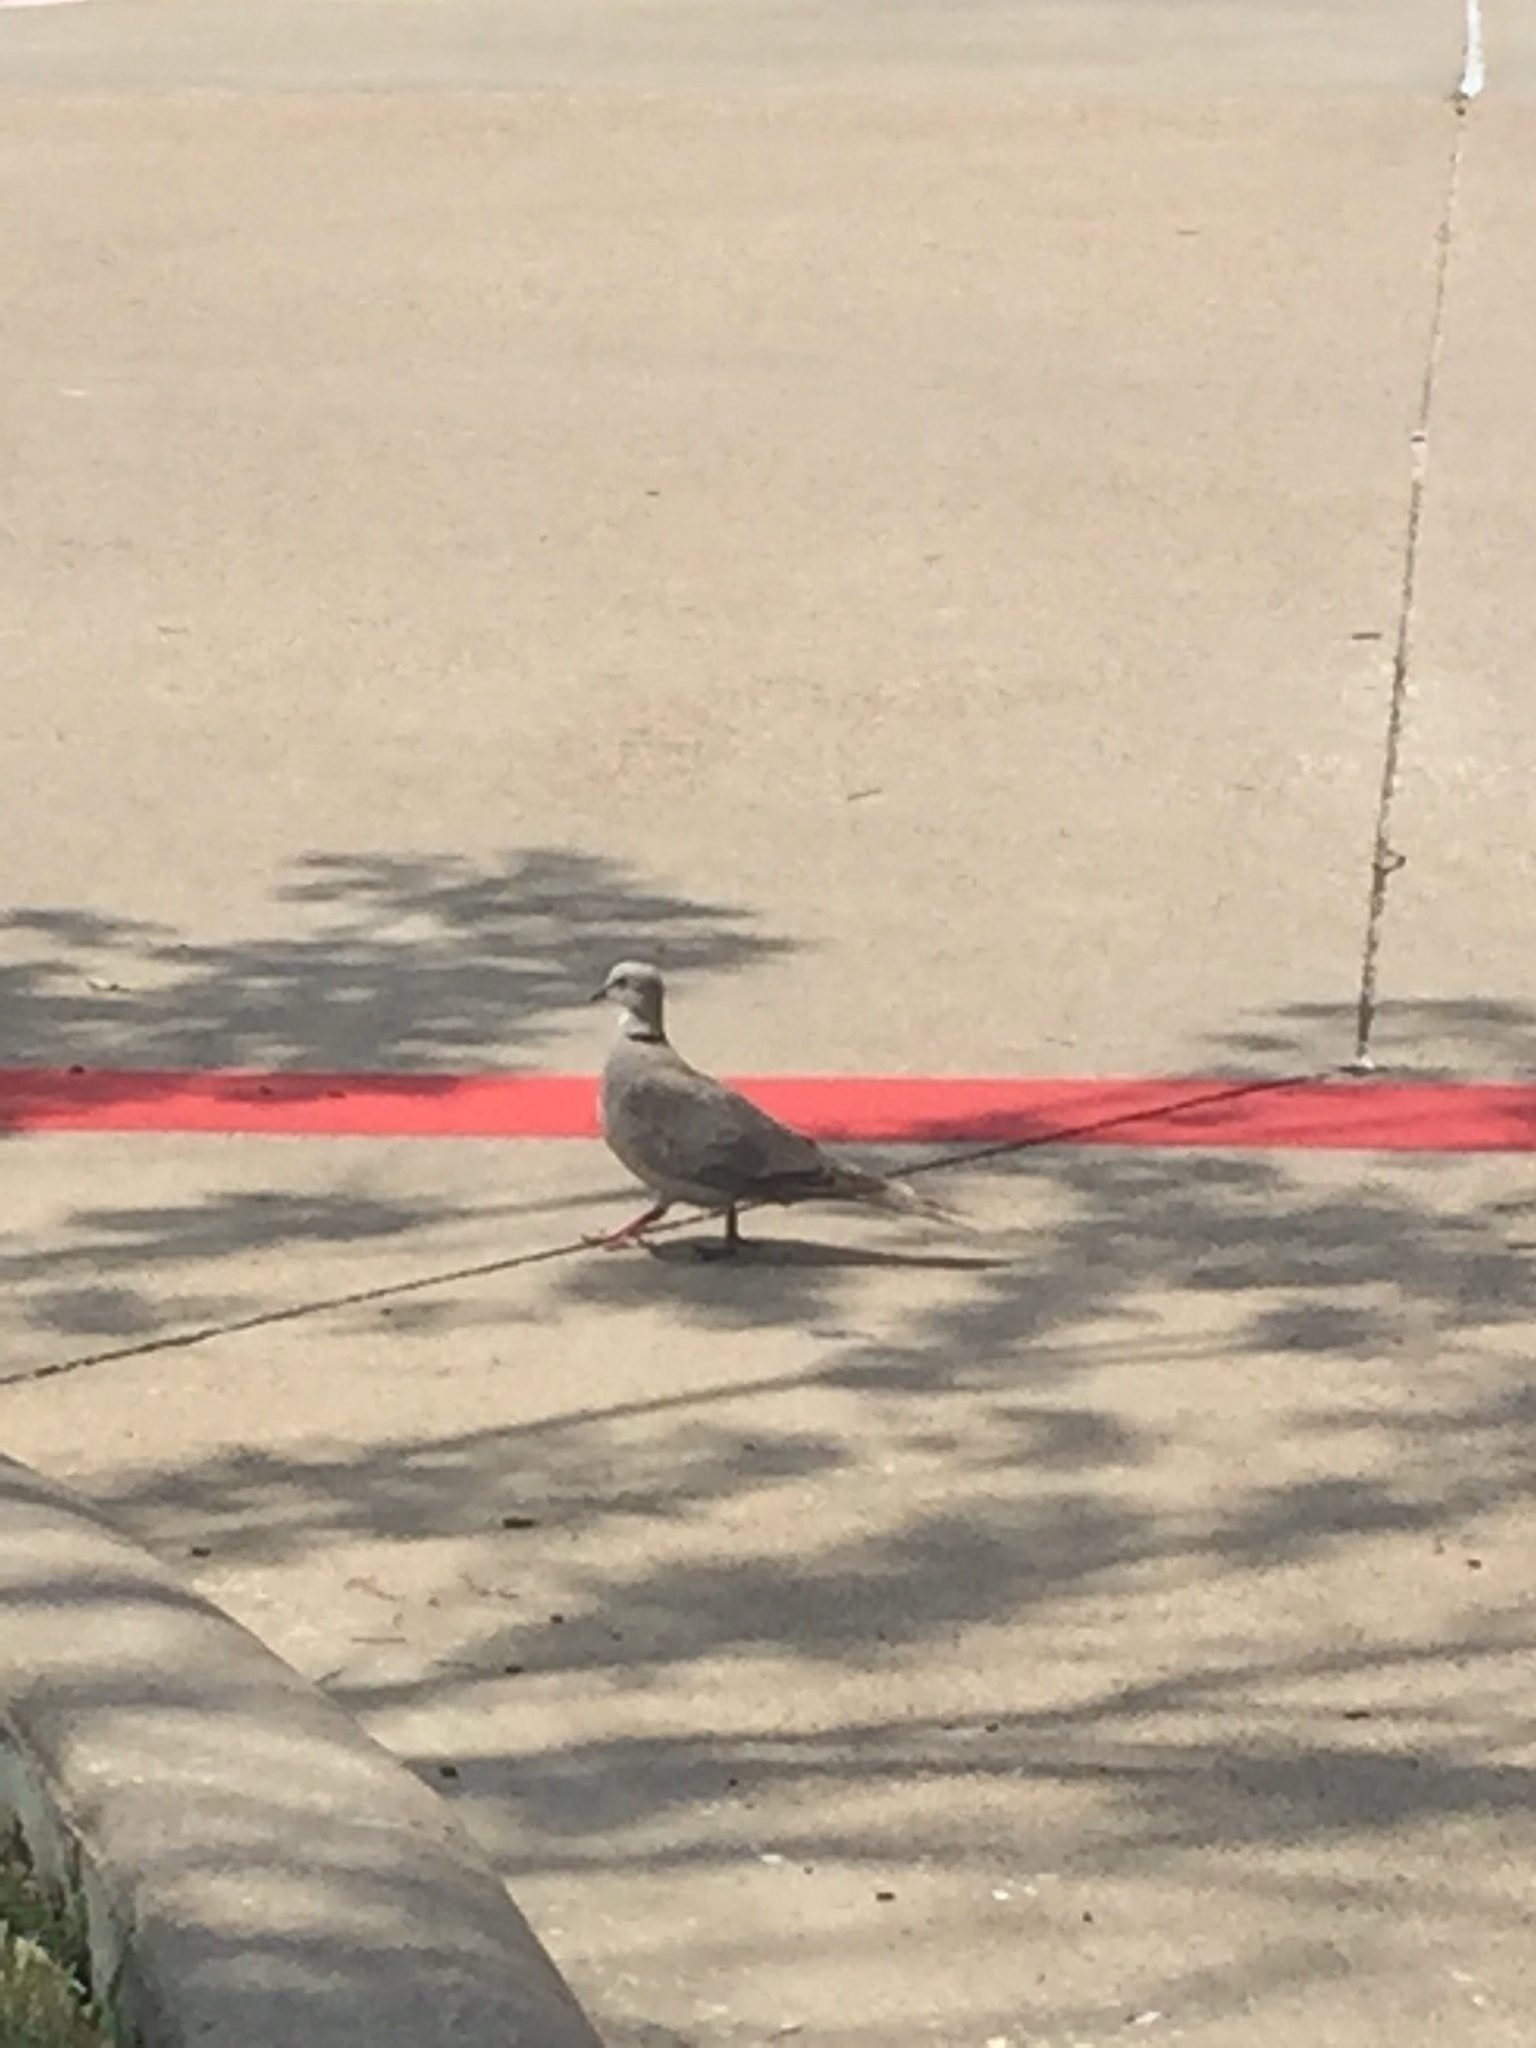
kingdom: Animalia
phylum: Chordata
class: Aves
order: Columbiformes
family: Columbidae
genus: Streptopelia
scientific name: Streptopelia decaocto
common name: Eurasian collared dove
